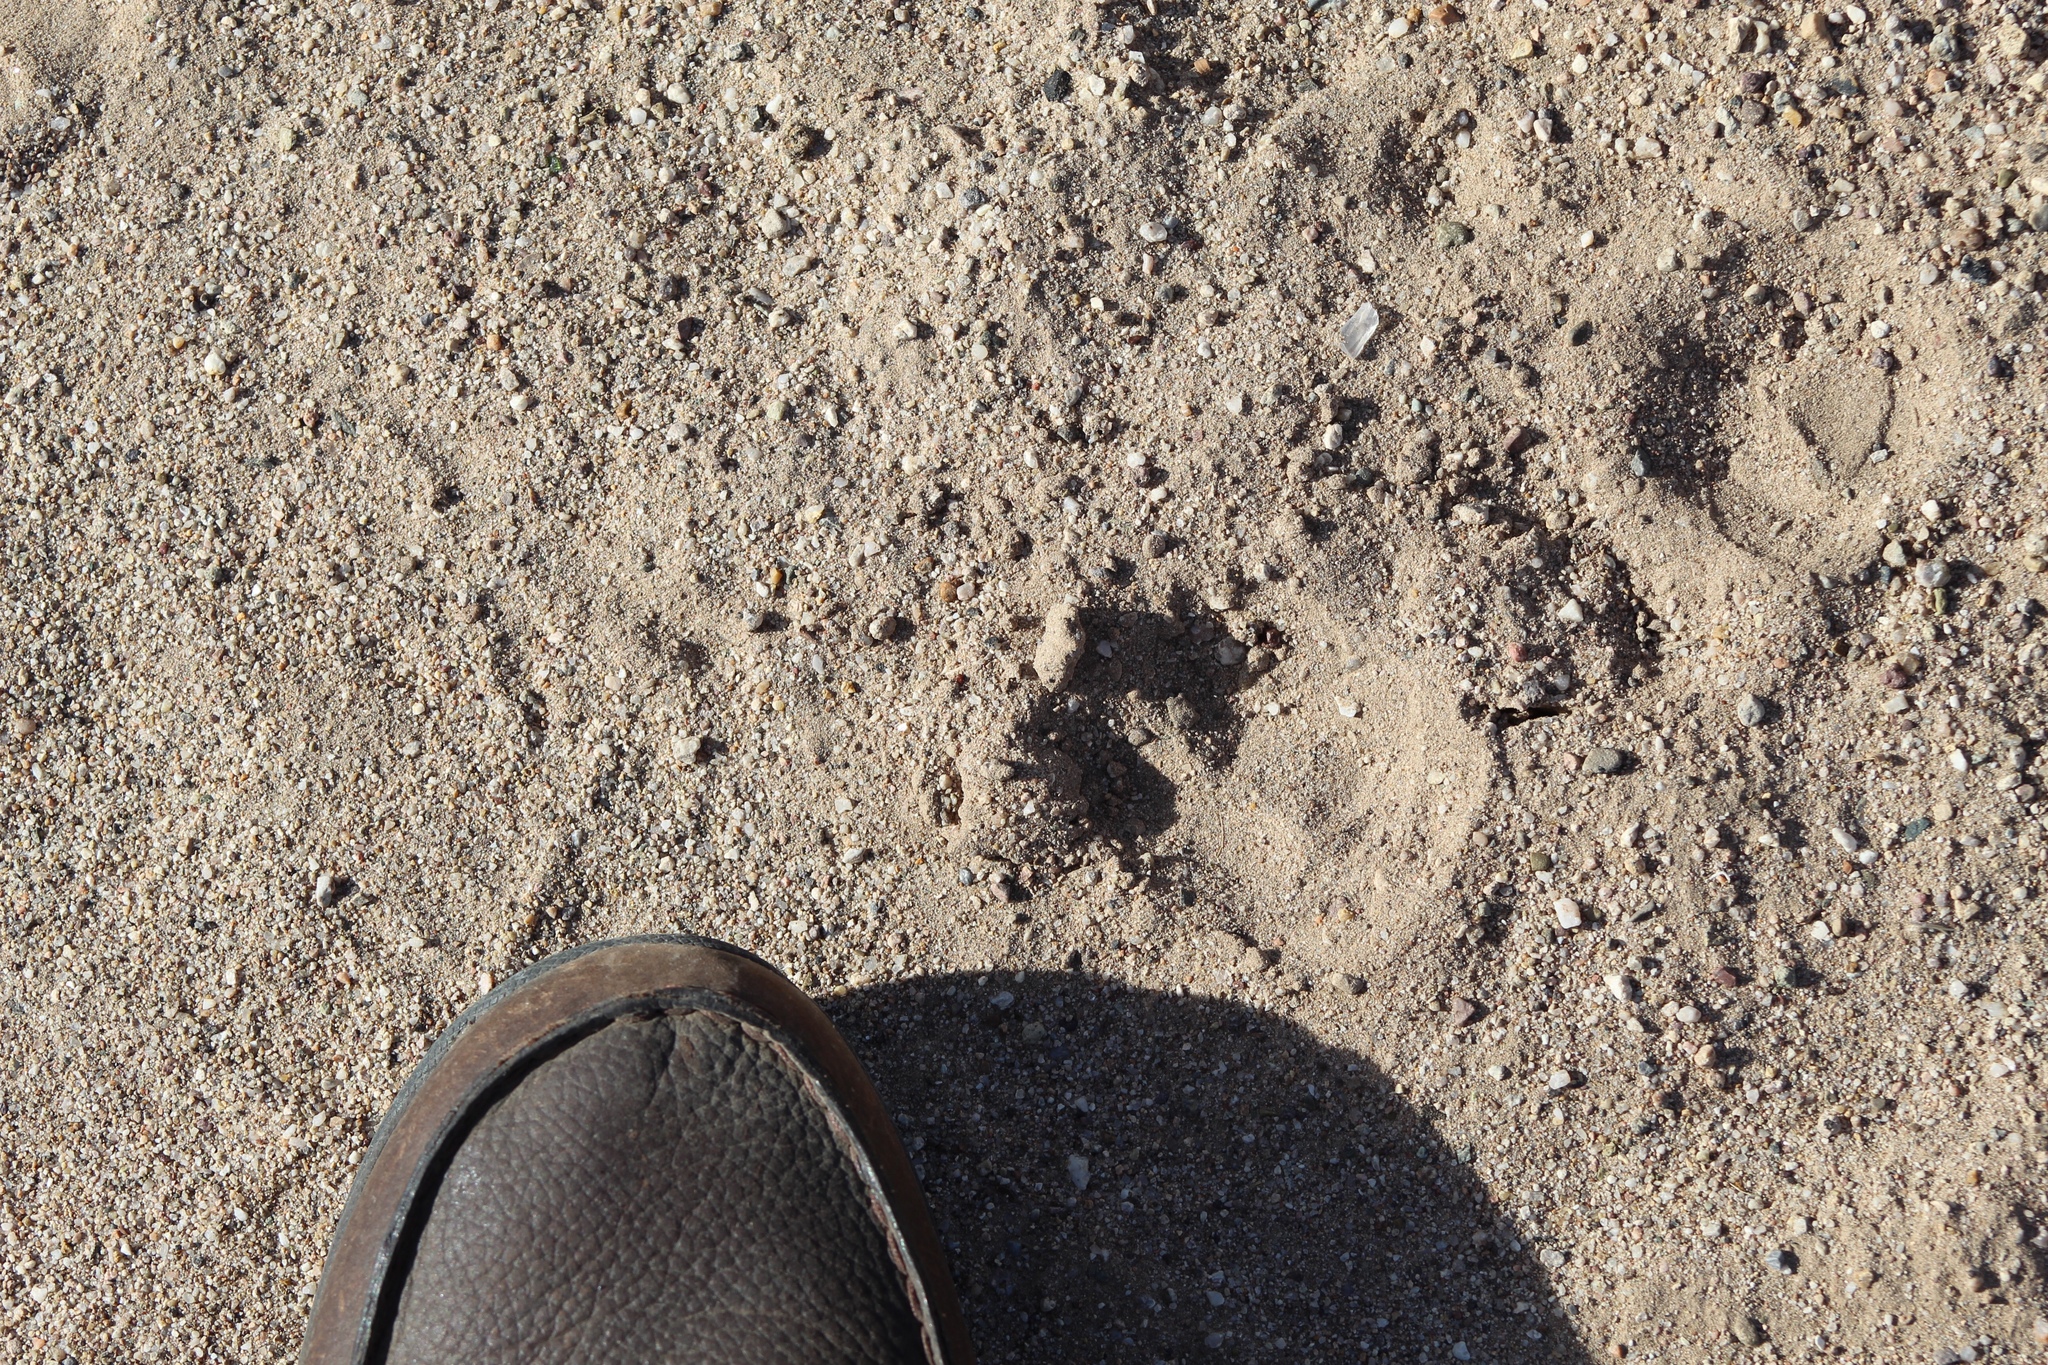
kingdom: Animalia
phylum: Chordata
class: Mammalia
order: Artiodactyla
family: Tayassuidae
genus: Pecari
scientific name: Pecari tajacu
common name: Collared peccary
